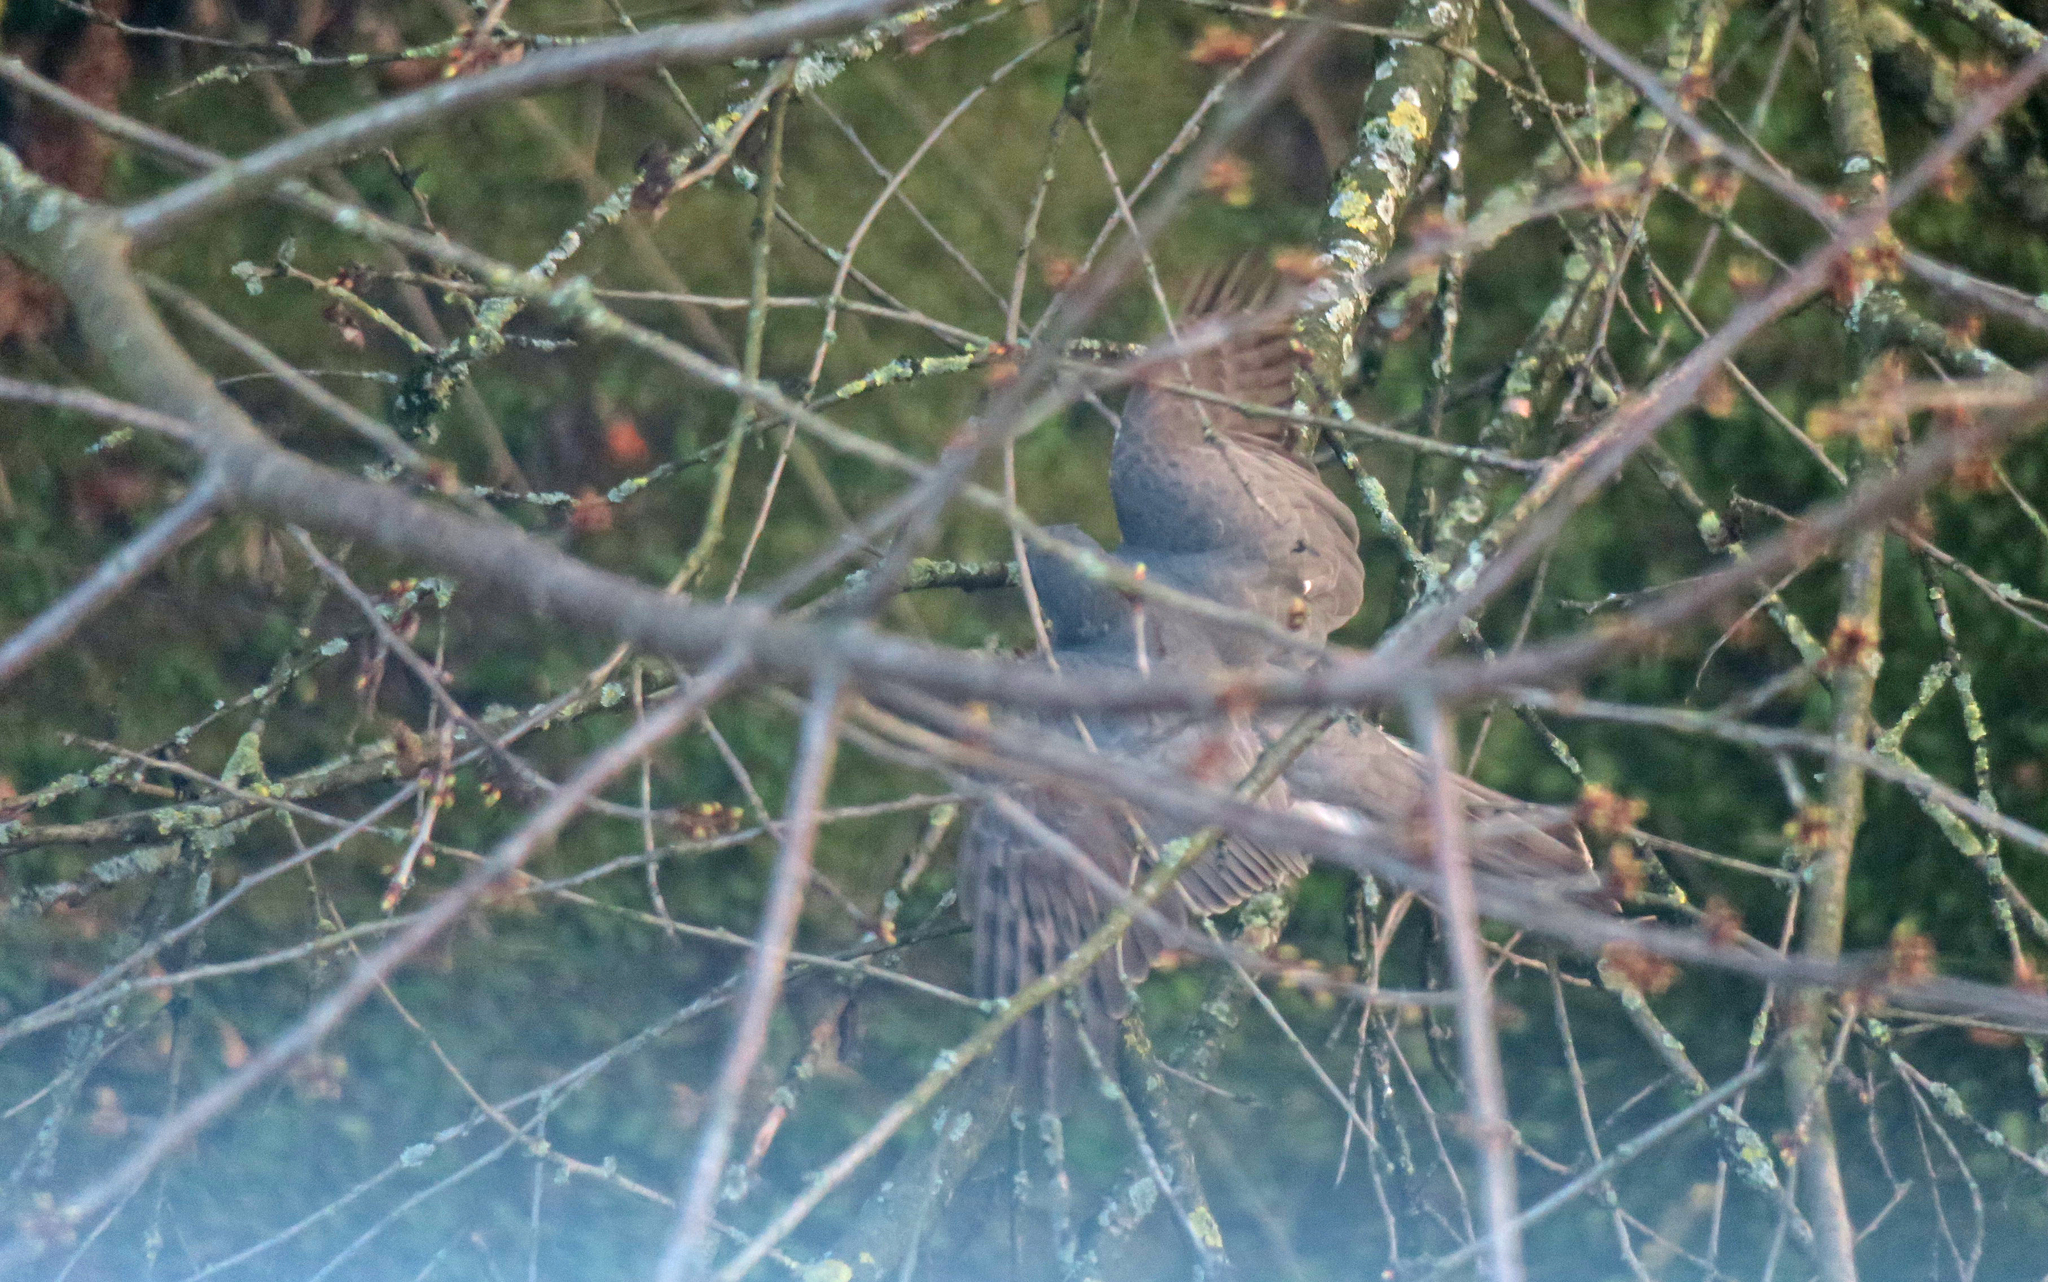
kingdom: Animalia
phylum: Chordata
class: Aves
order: Accipitriformes
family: Accipitridae
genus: Accipiter
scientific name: Accipiter nisus
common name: Eurasian sparrowhawk
